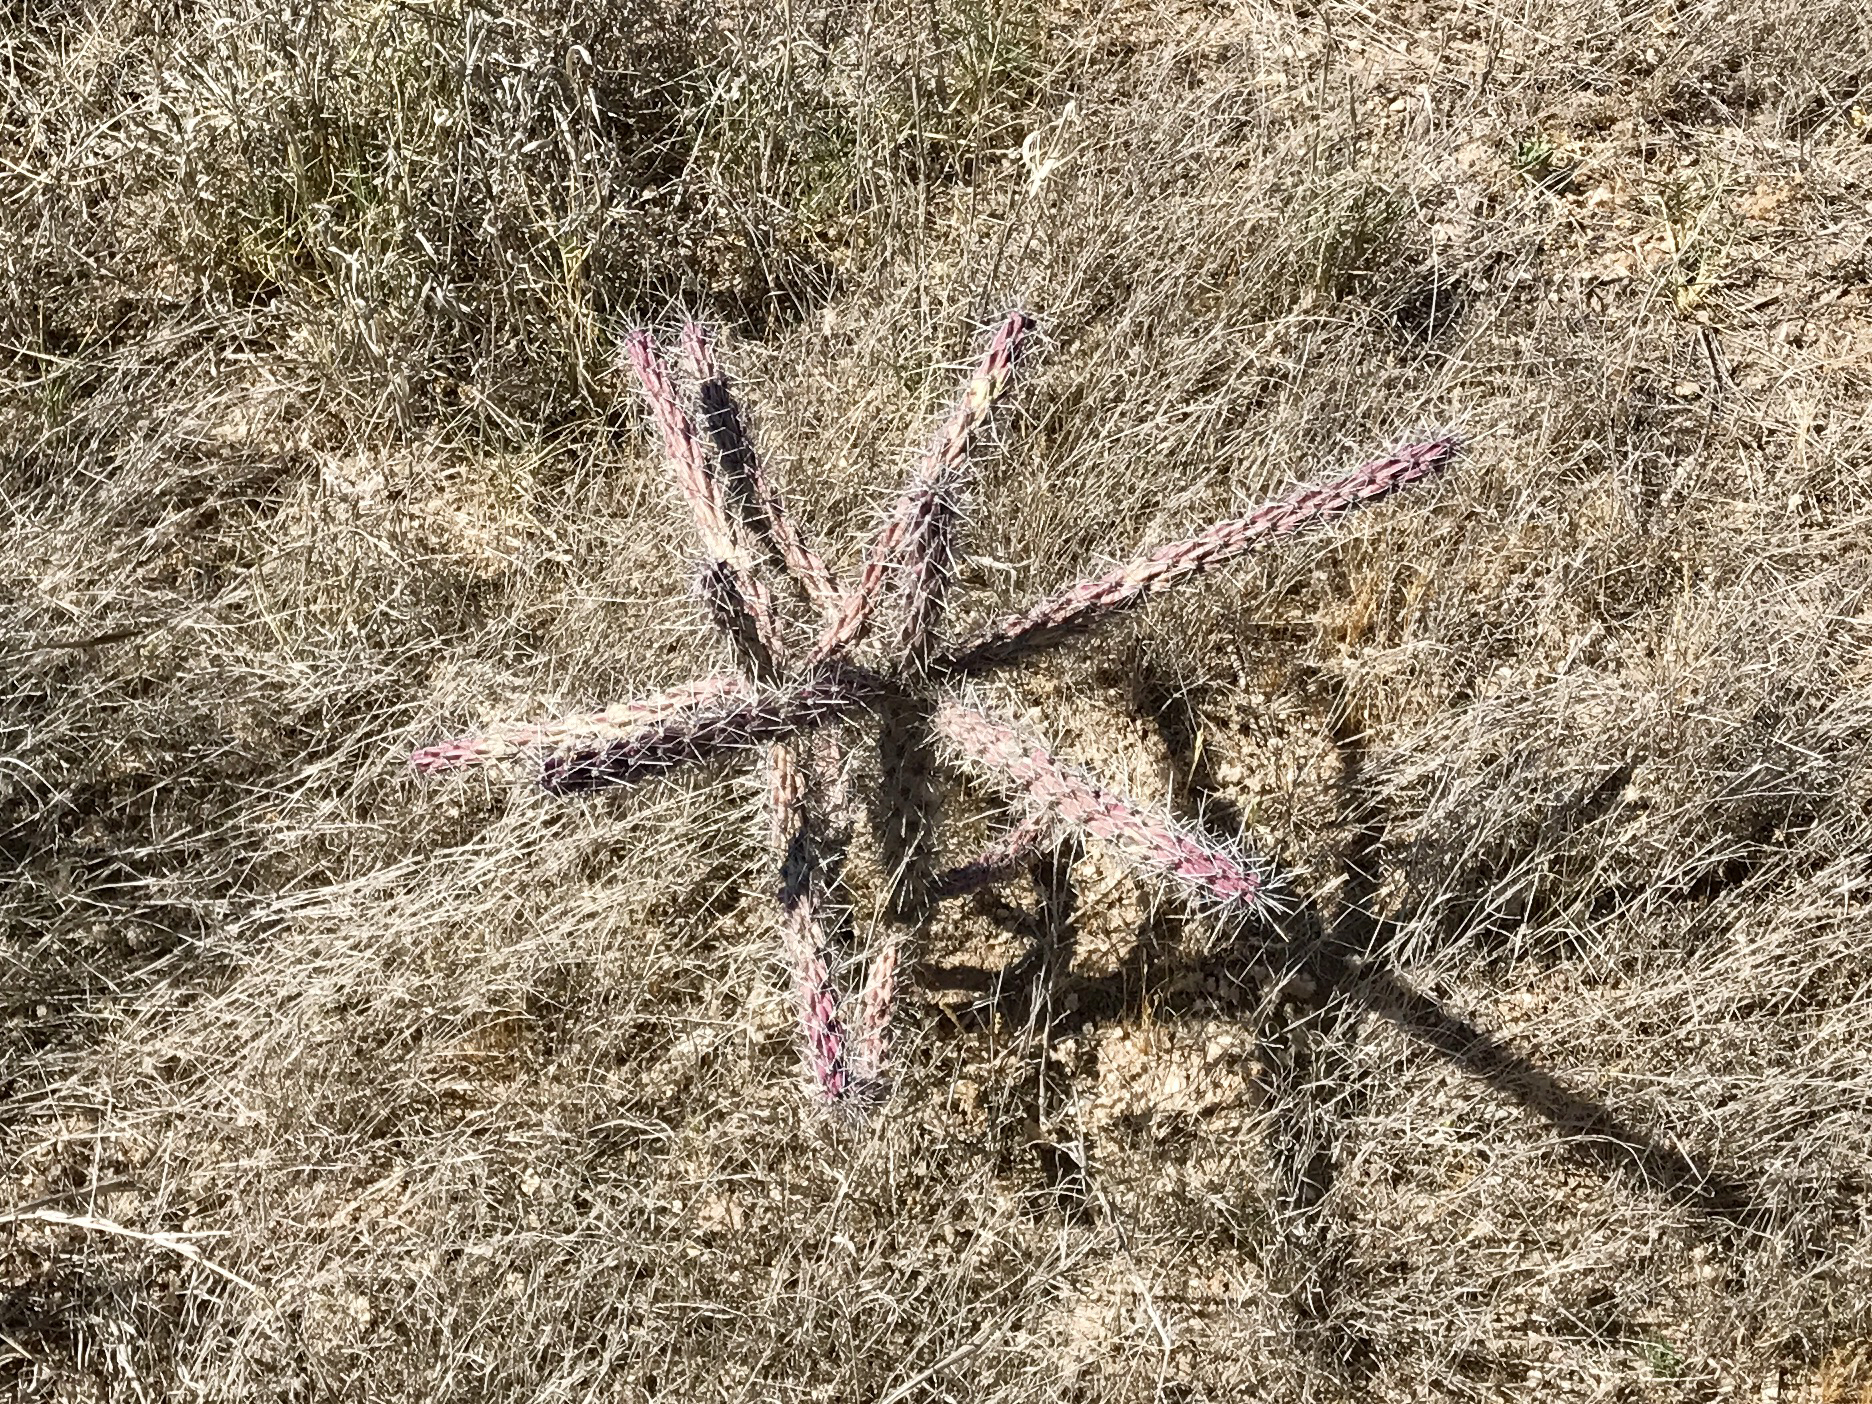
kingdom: Plantae
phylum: Tracheophyta
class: Magnoliopsida
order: Caryophyllales
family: Cactaceae
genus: Cylindropuntia
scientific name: Cylindropuntia imbricata
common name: Candelabrum cactus
